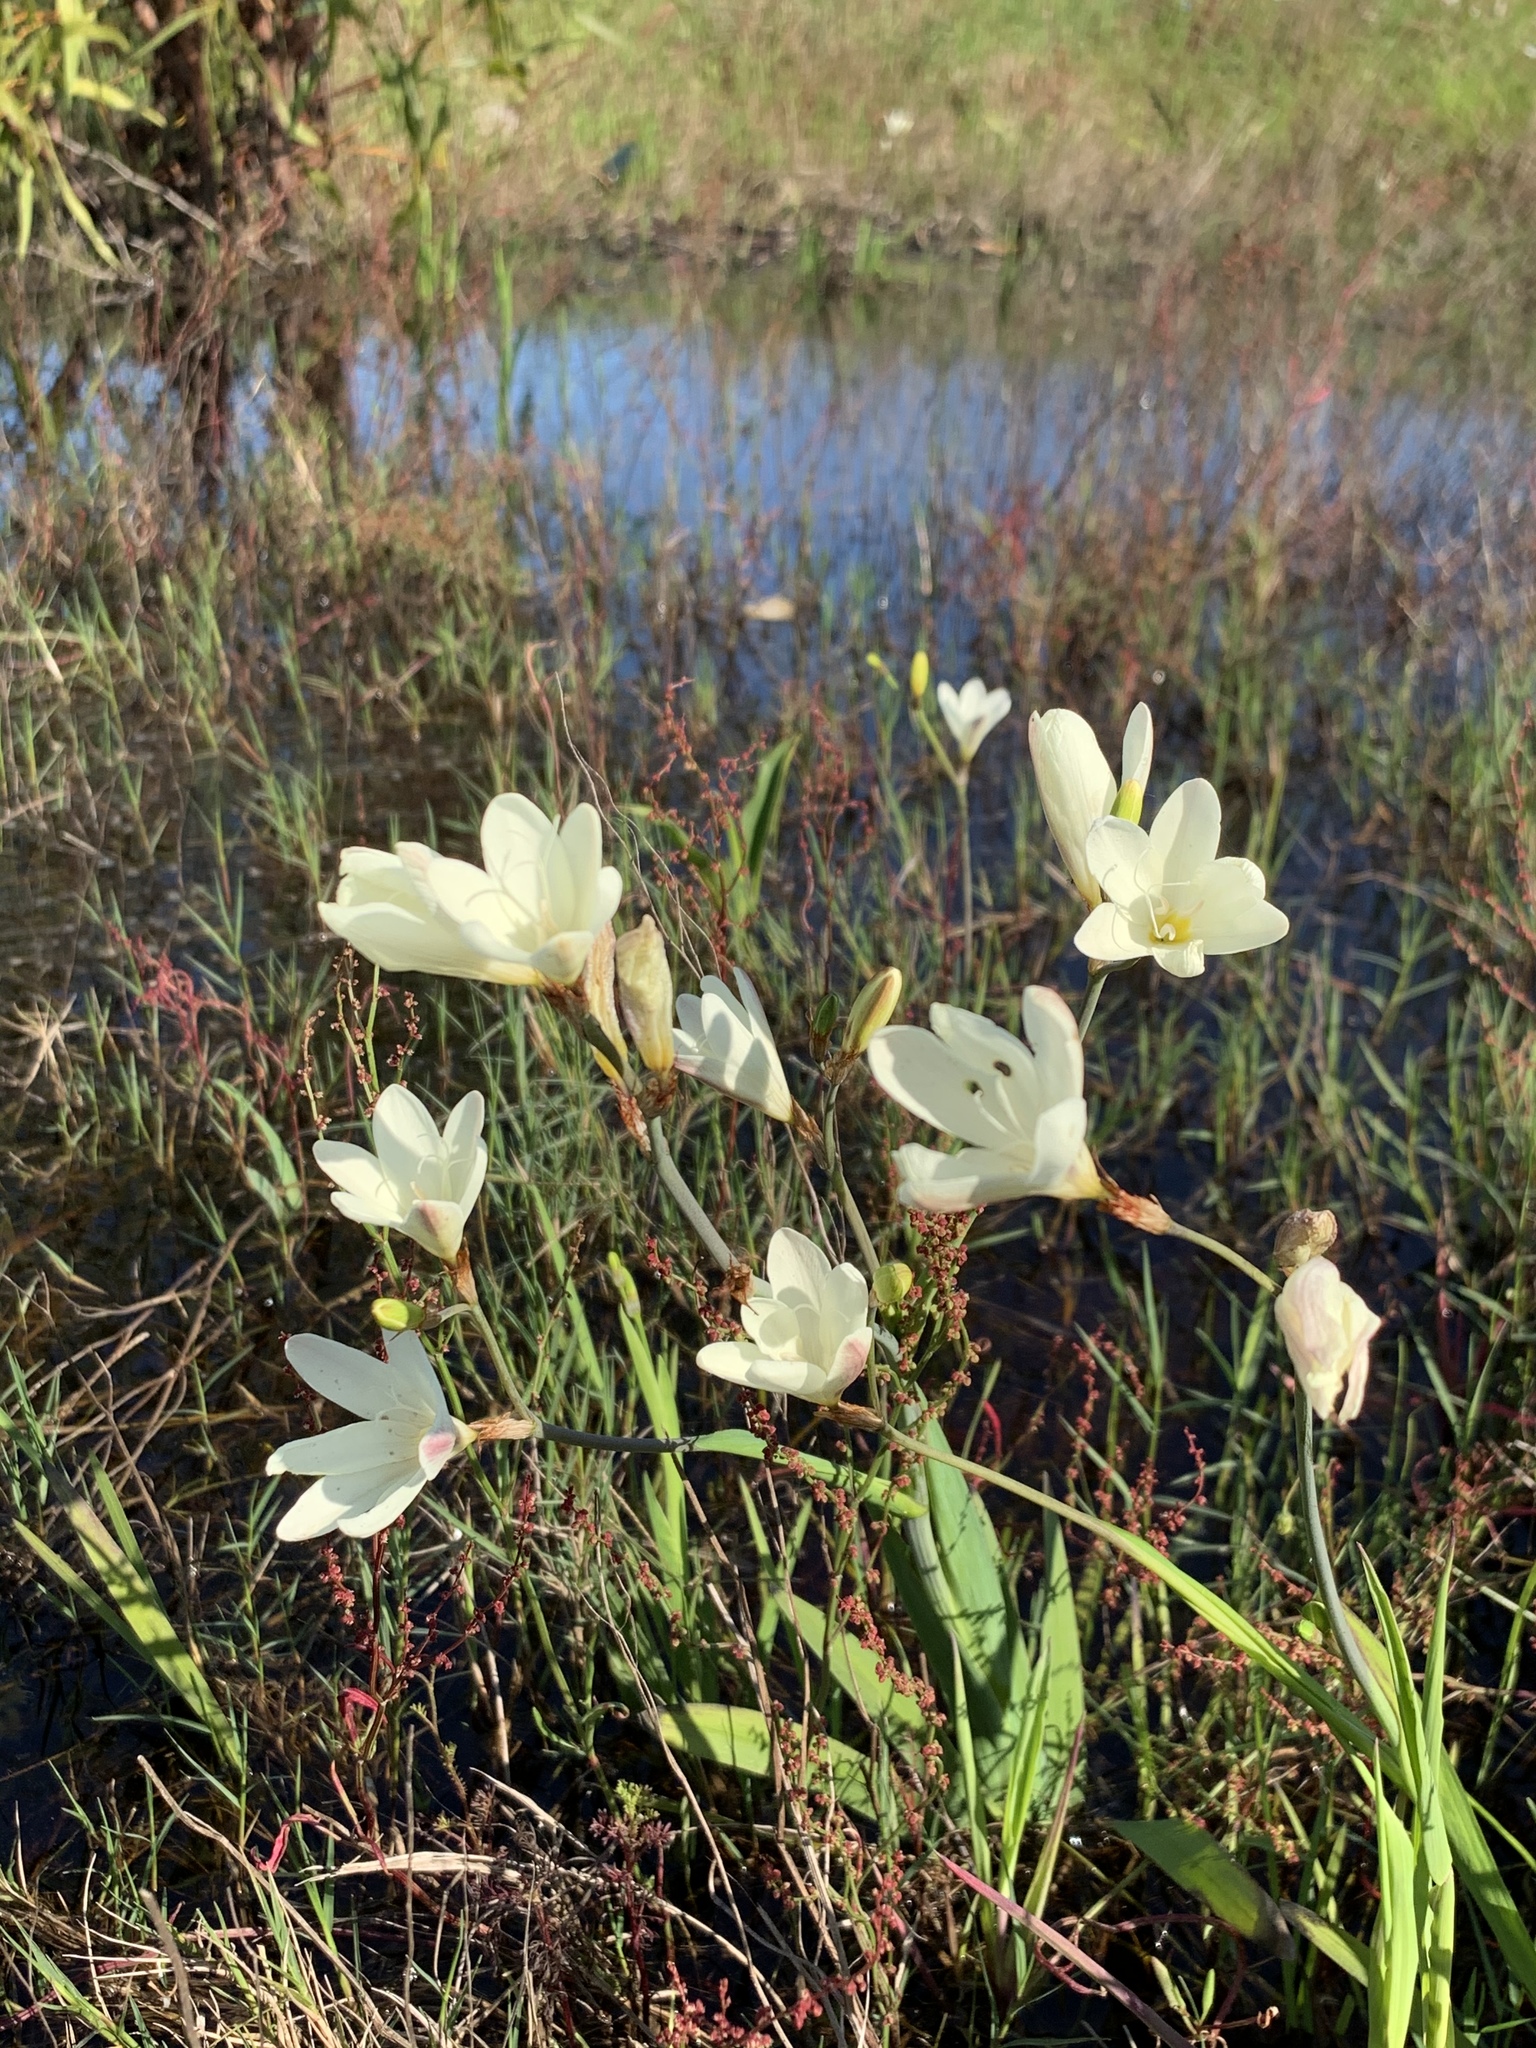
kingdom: Plantae
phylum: Tracheophyta
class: Liliopsida
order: Asparagales
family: Iridaceae
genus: Sparaxis
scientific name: Sparaxis bulbifera
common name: Harlequin-flower
